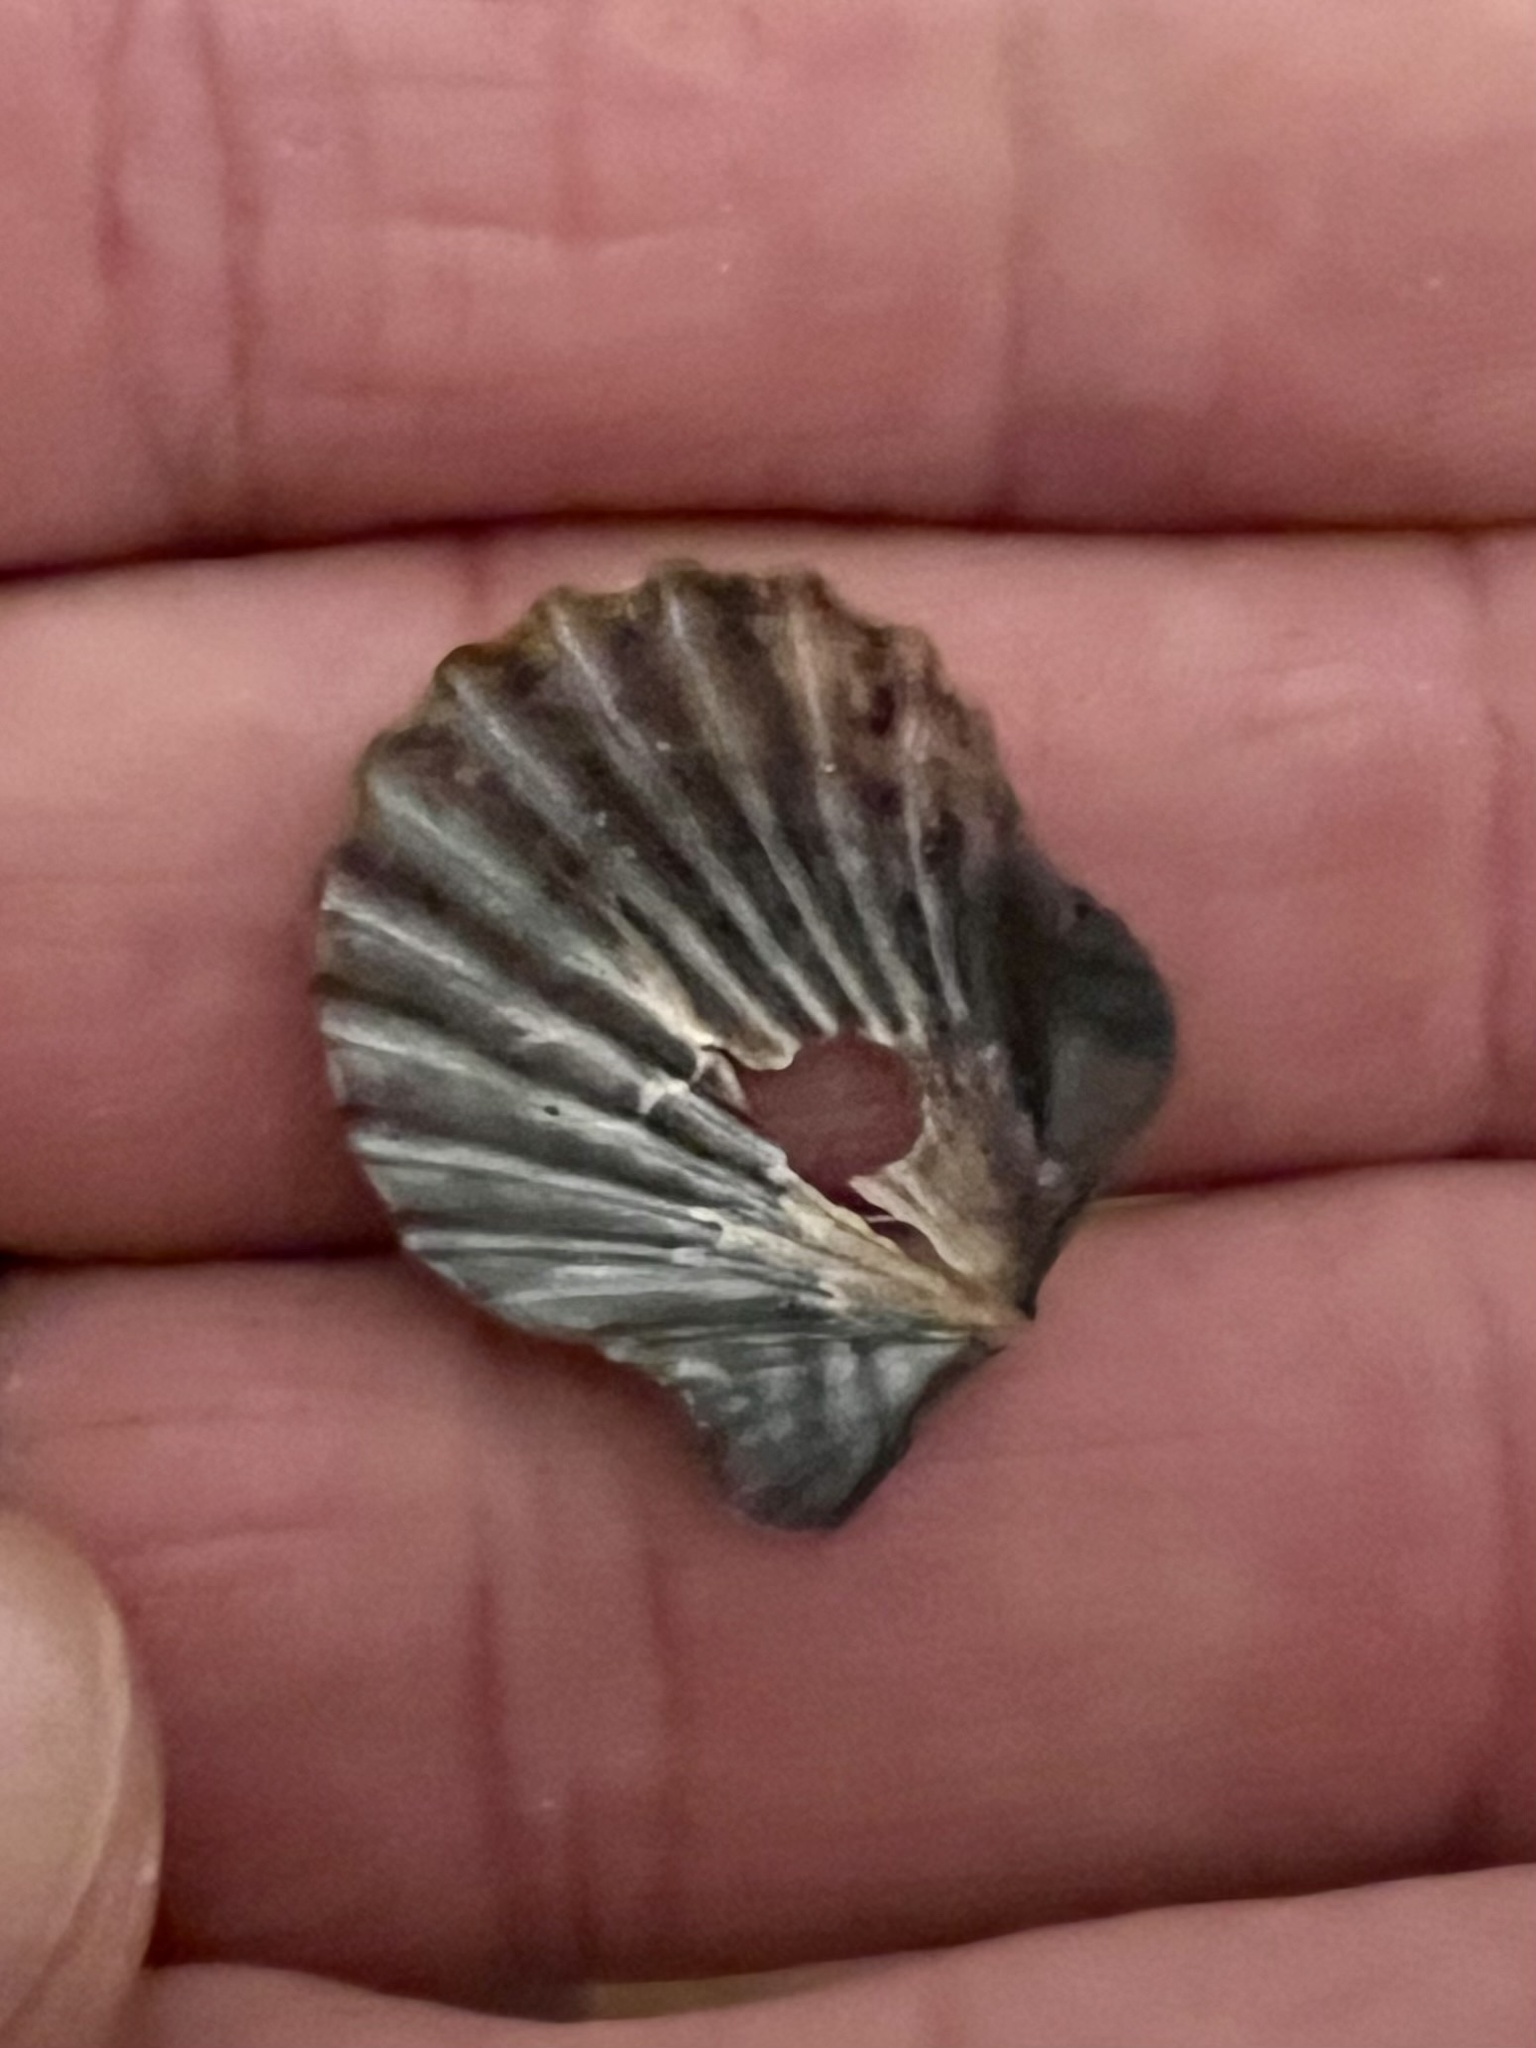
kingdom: Animalia
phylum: Mollusca
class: Bivalvia
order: Pectinida
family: Pectinidae
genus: Leptopecten
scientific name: Leptopecten latiauratus
